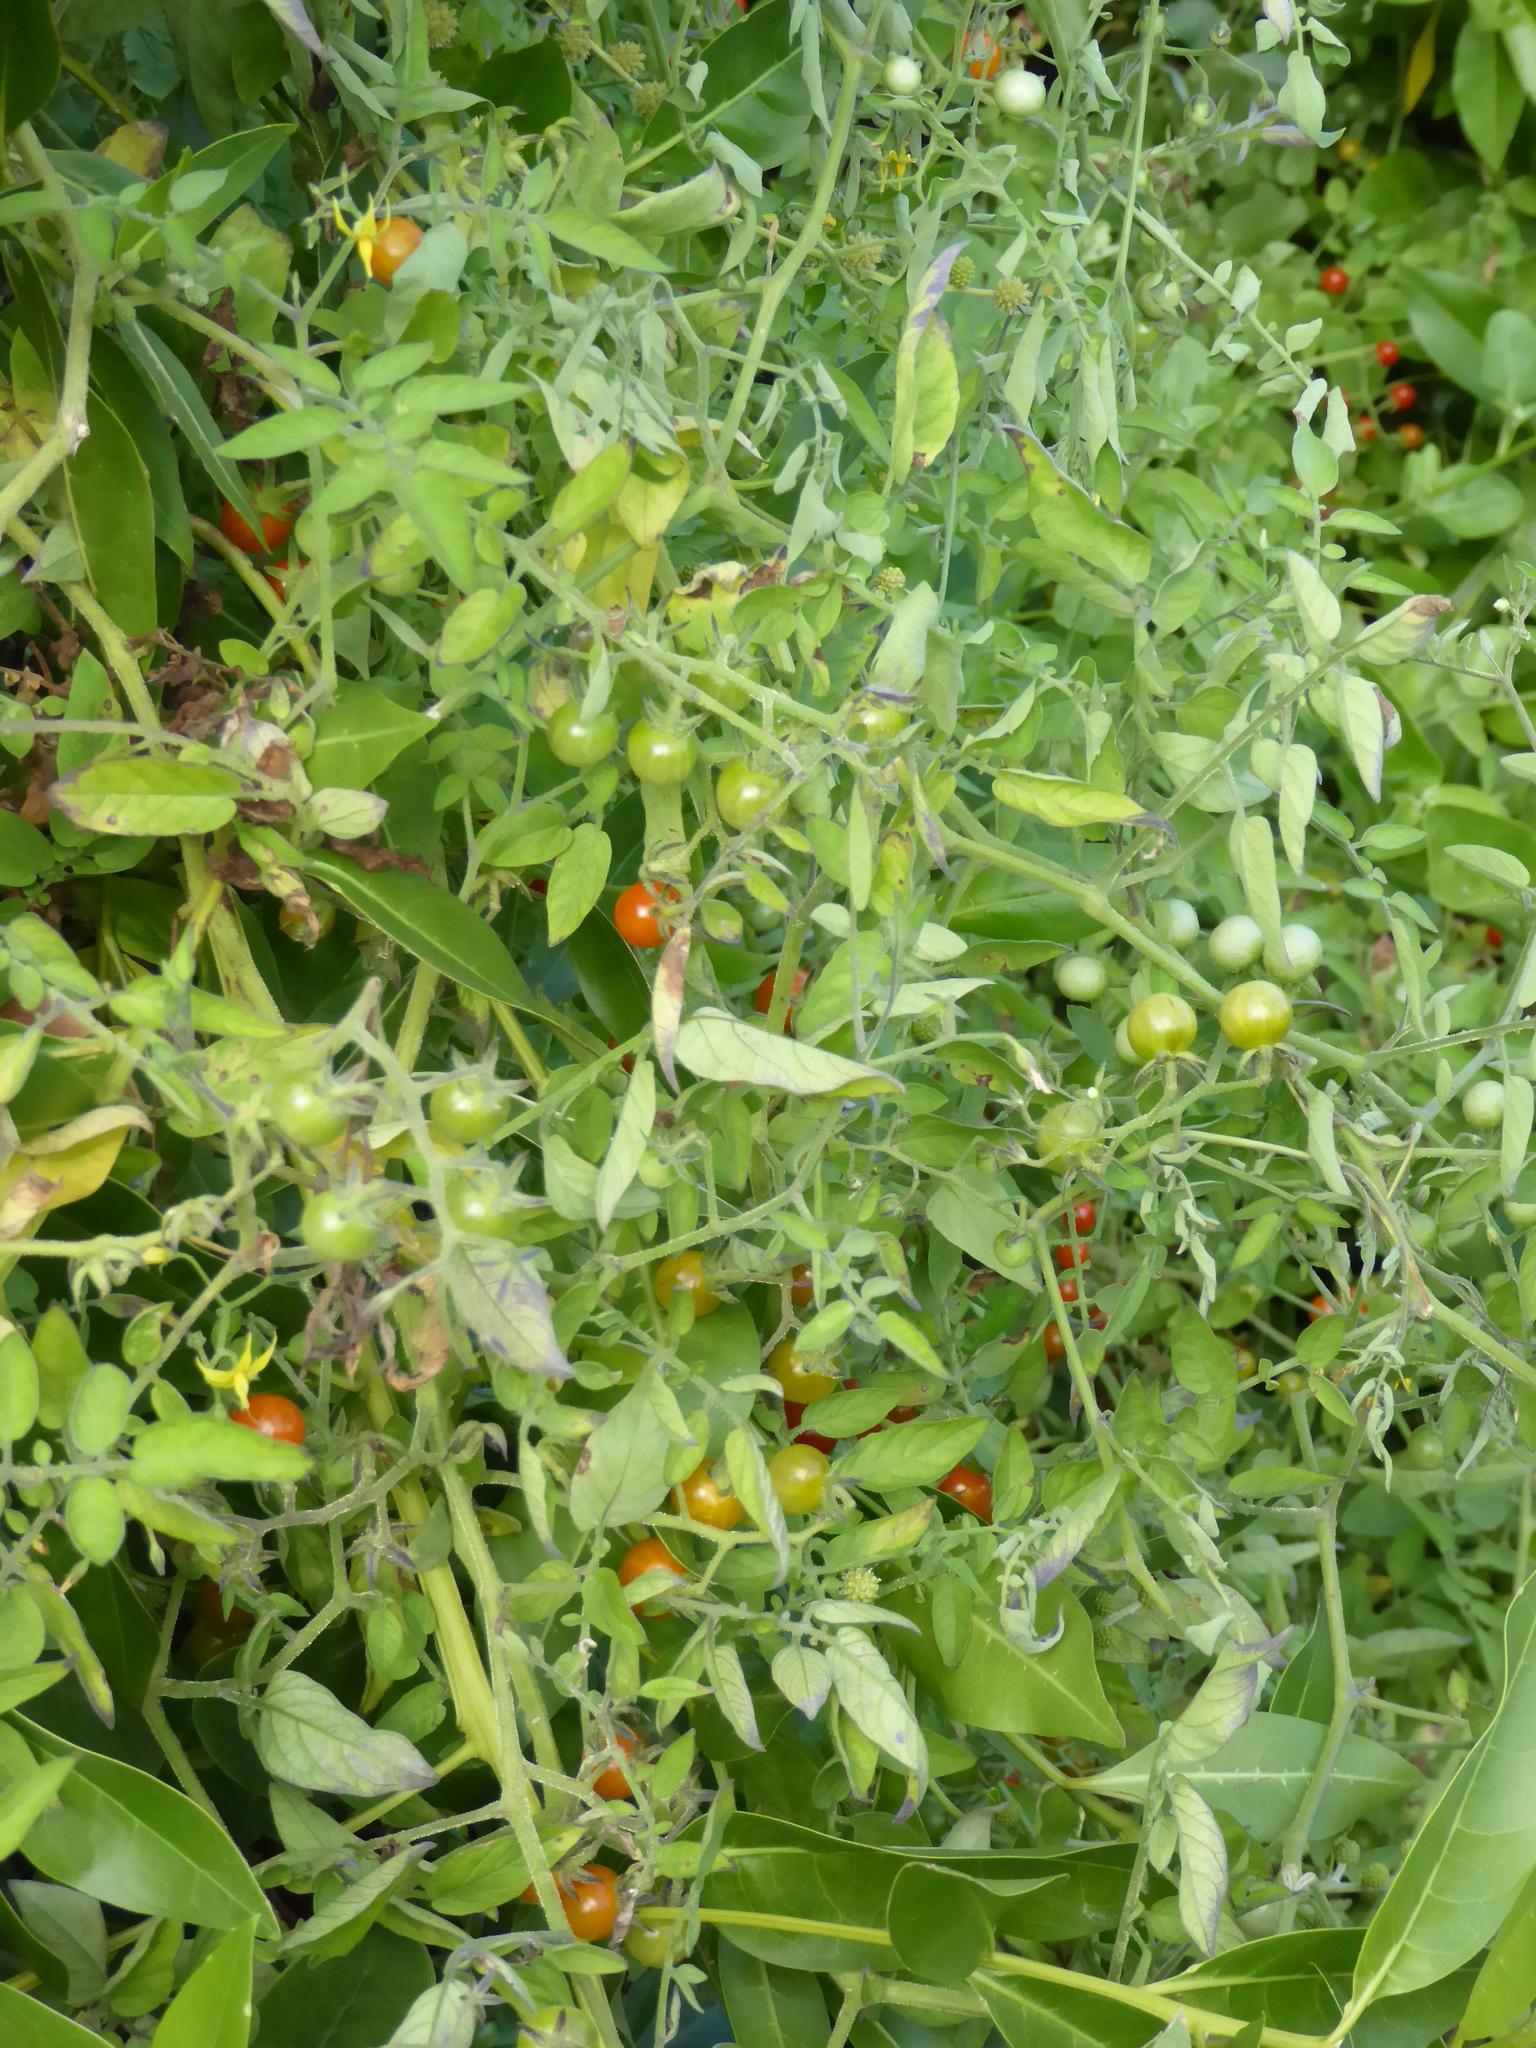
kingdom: Plantae
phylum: Tracheophyta
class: Magnoliopsida
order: Solanales
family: Solanaceae
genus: Solanum
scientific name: Solanum pimpinellifolium
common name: Currant-tomato
